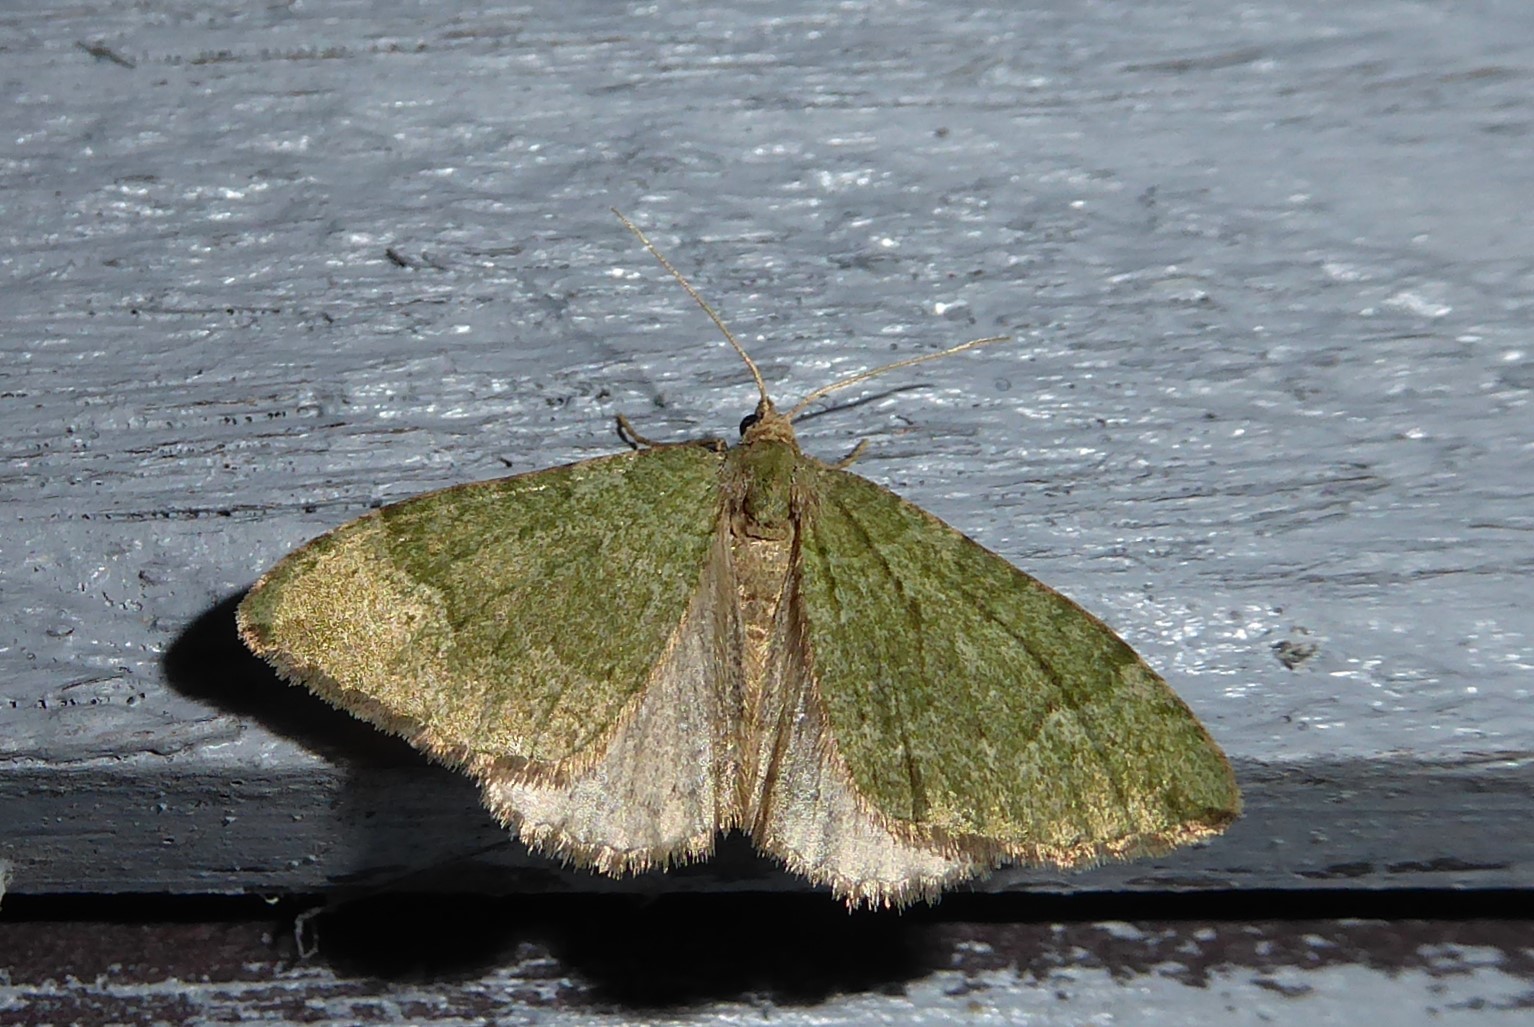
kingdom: Animalia
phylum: Arthropoda
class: Insecta
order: Lepidoptera
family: Geometridae
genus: Epyaxa
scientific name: Epyaxa rosearia
